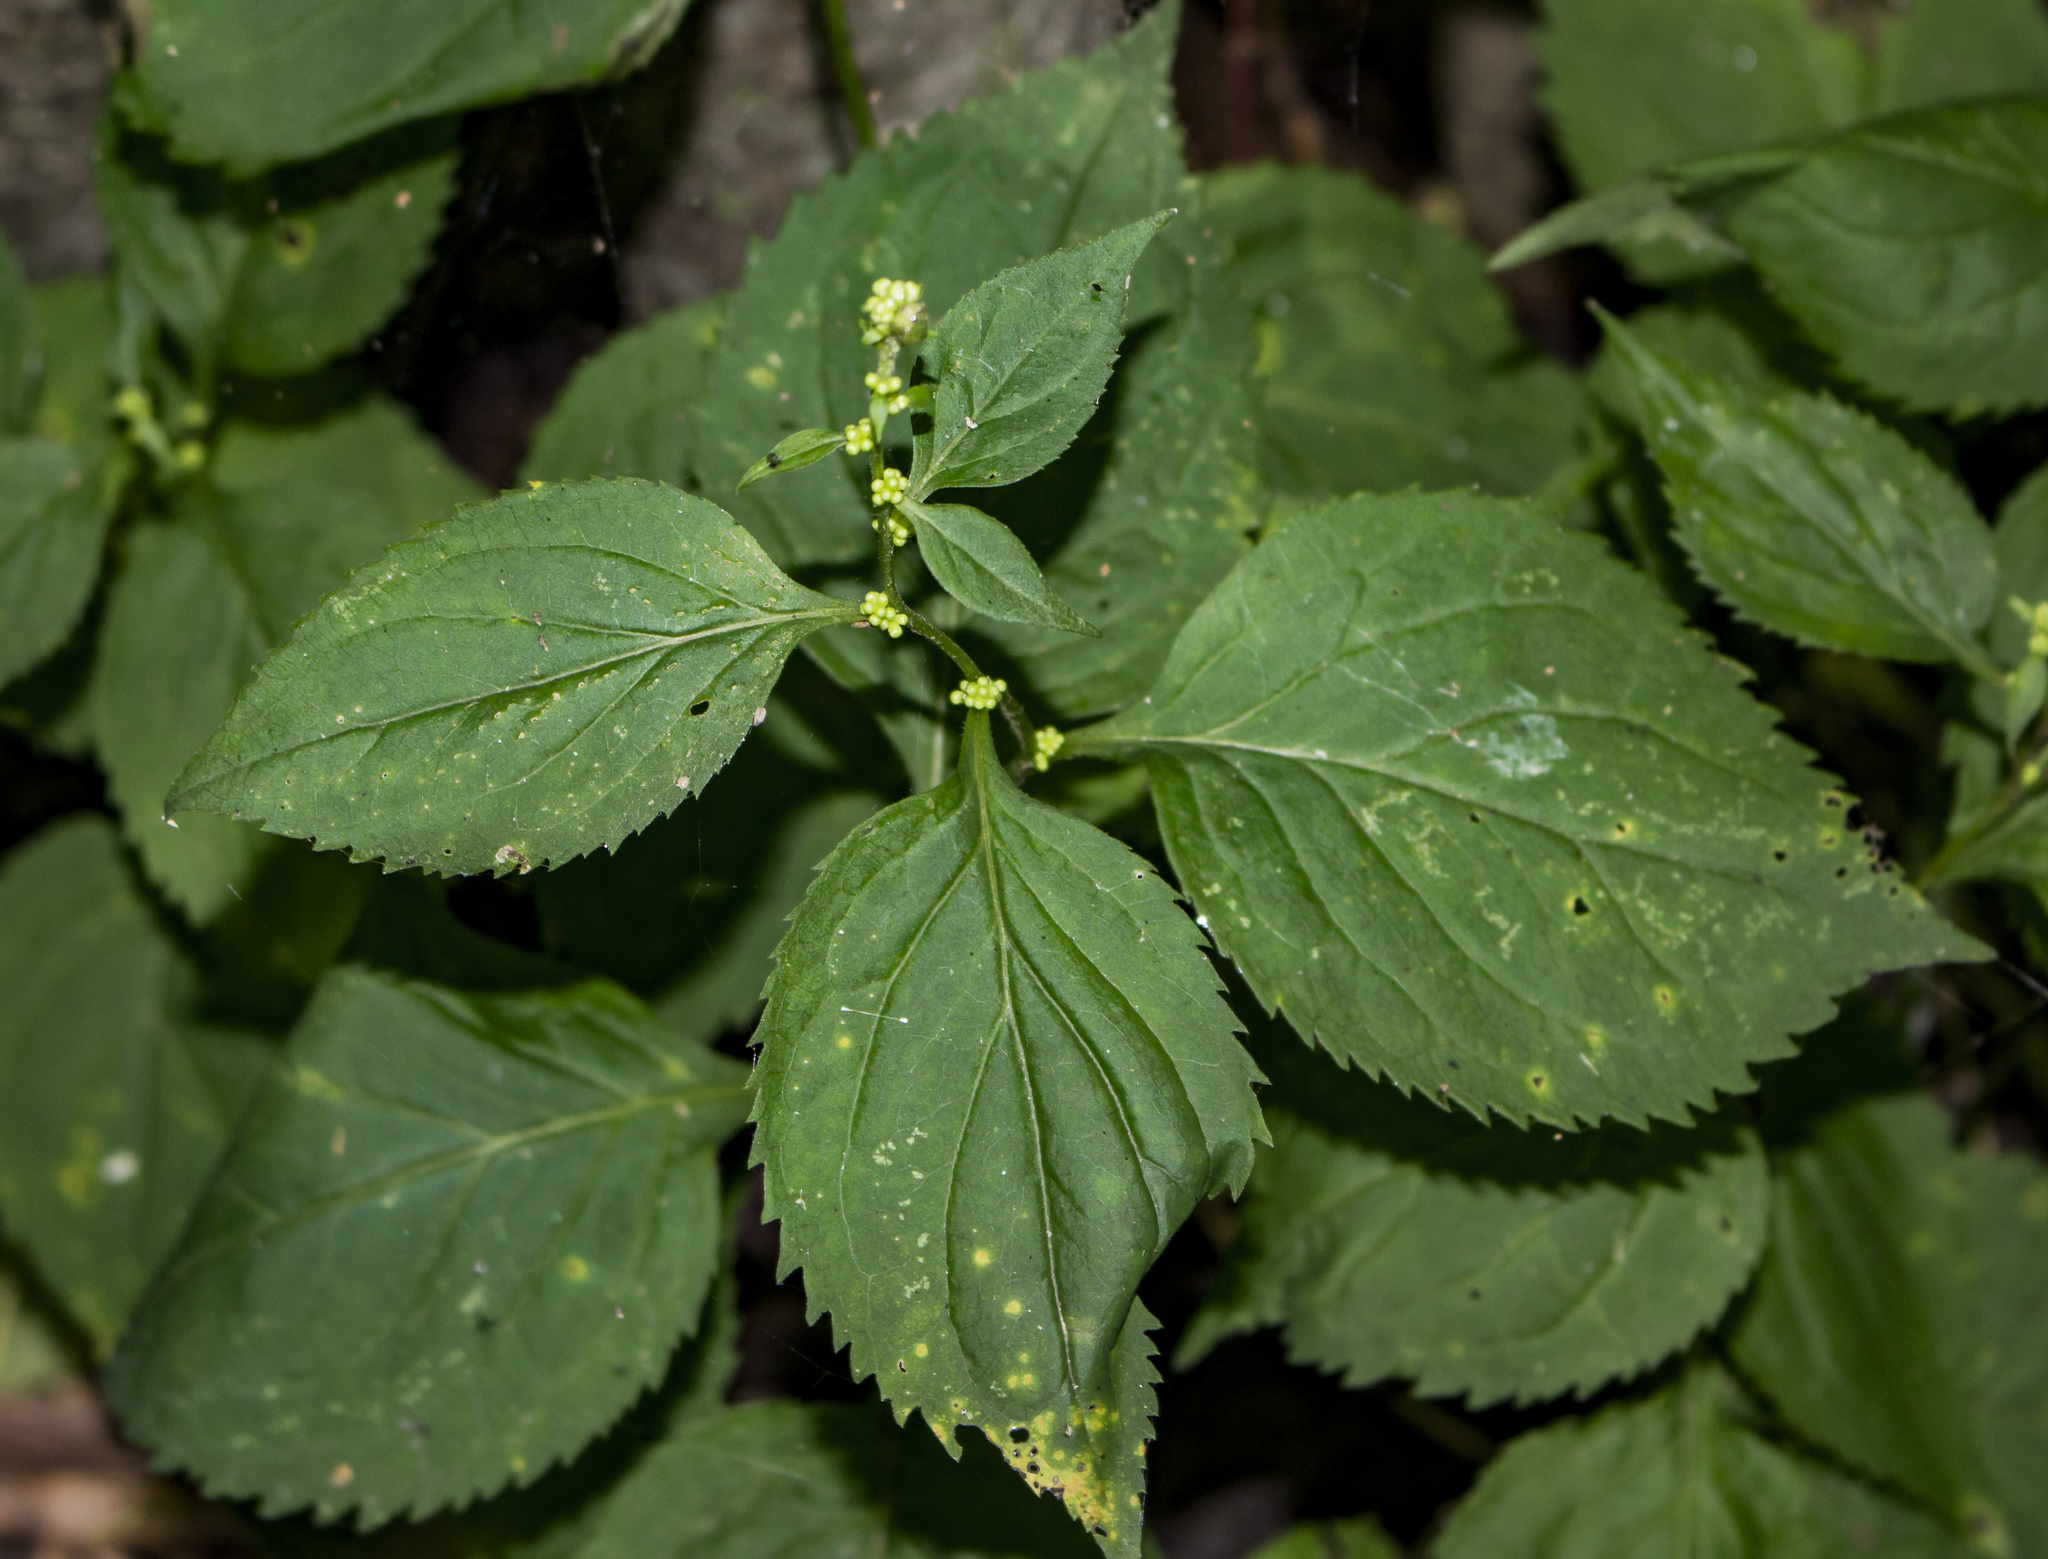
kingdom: Plantae
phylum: Tracheophyta
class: Magnoliopsida
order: Asterales
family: Asteraceae
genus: Solidago
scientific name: Solidago flexicaulis
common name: Zig-zag goldenrod
